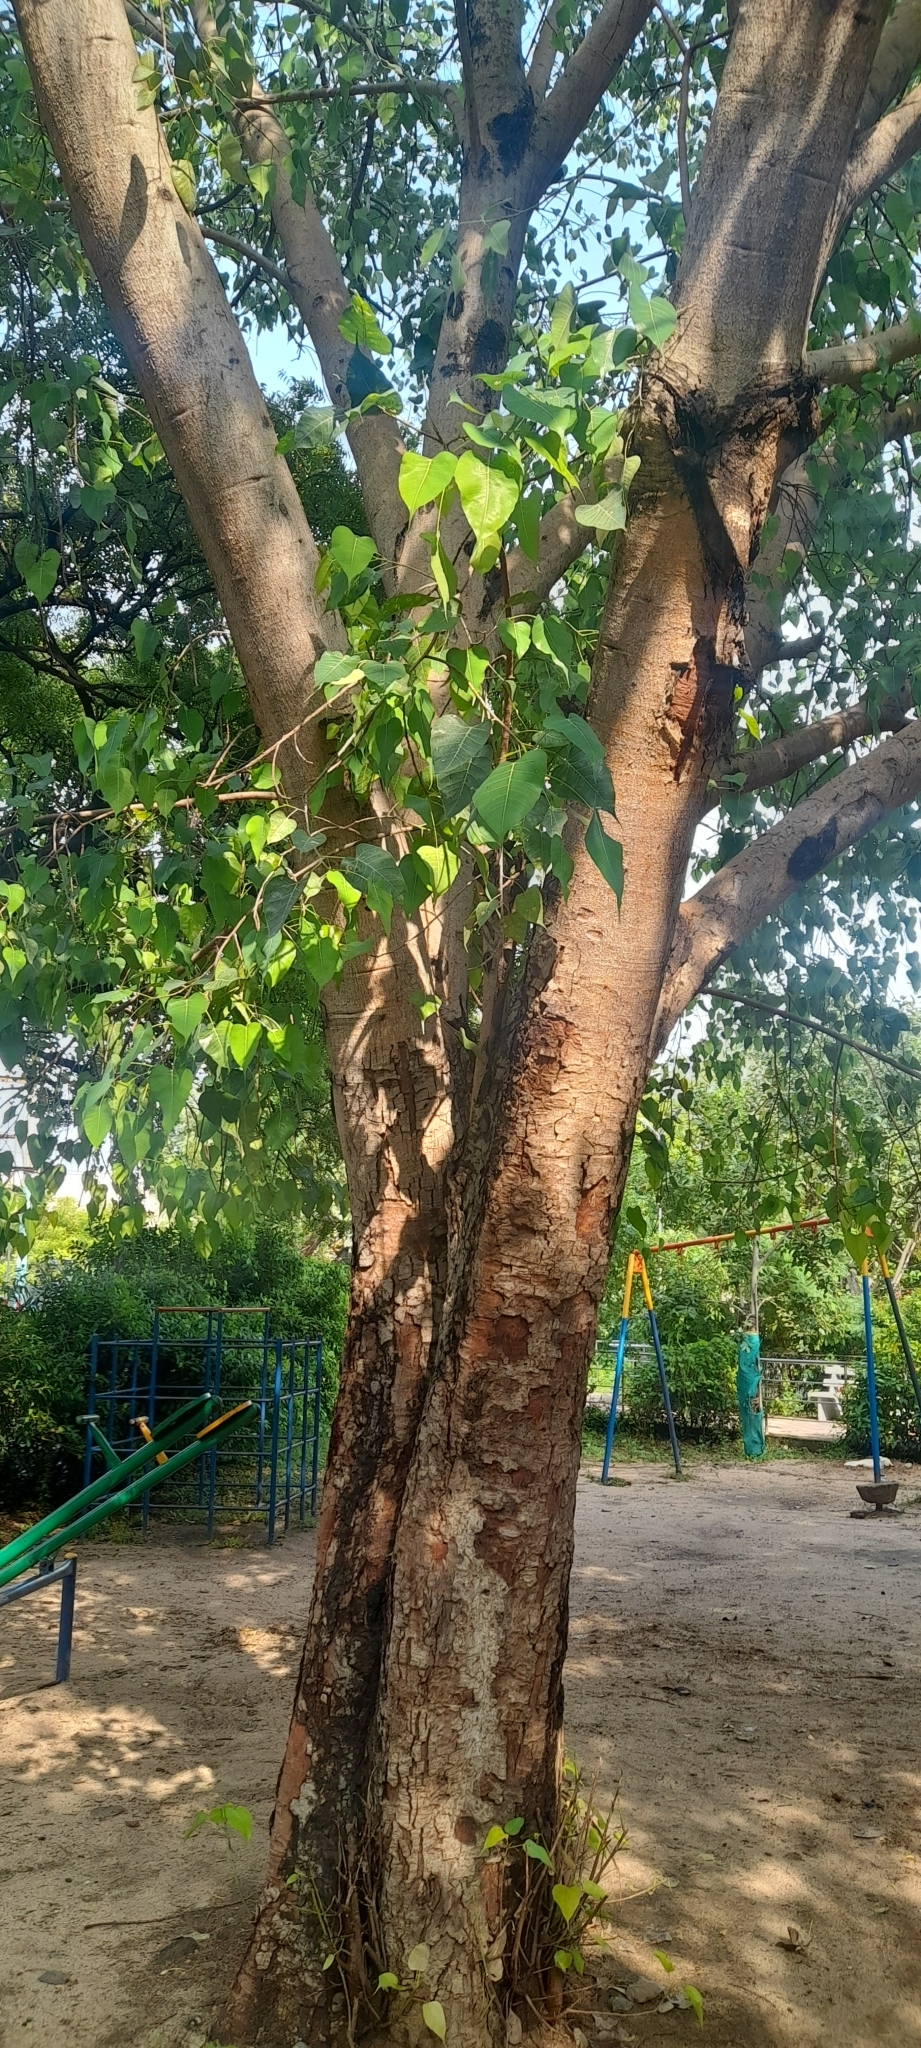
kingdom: Plantae
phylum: Tracheophyta
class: Magnoliopsida
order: Rosales
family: Moraceae
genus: Ficus
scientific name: Ficus religiosa
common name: Bodhi tree
